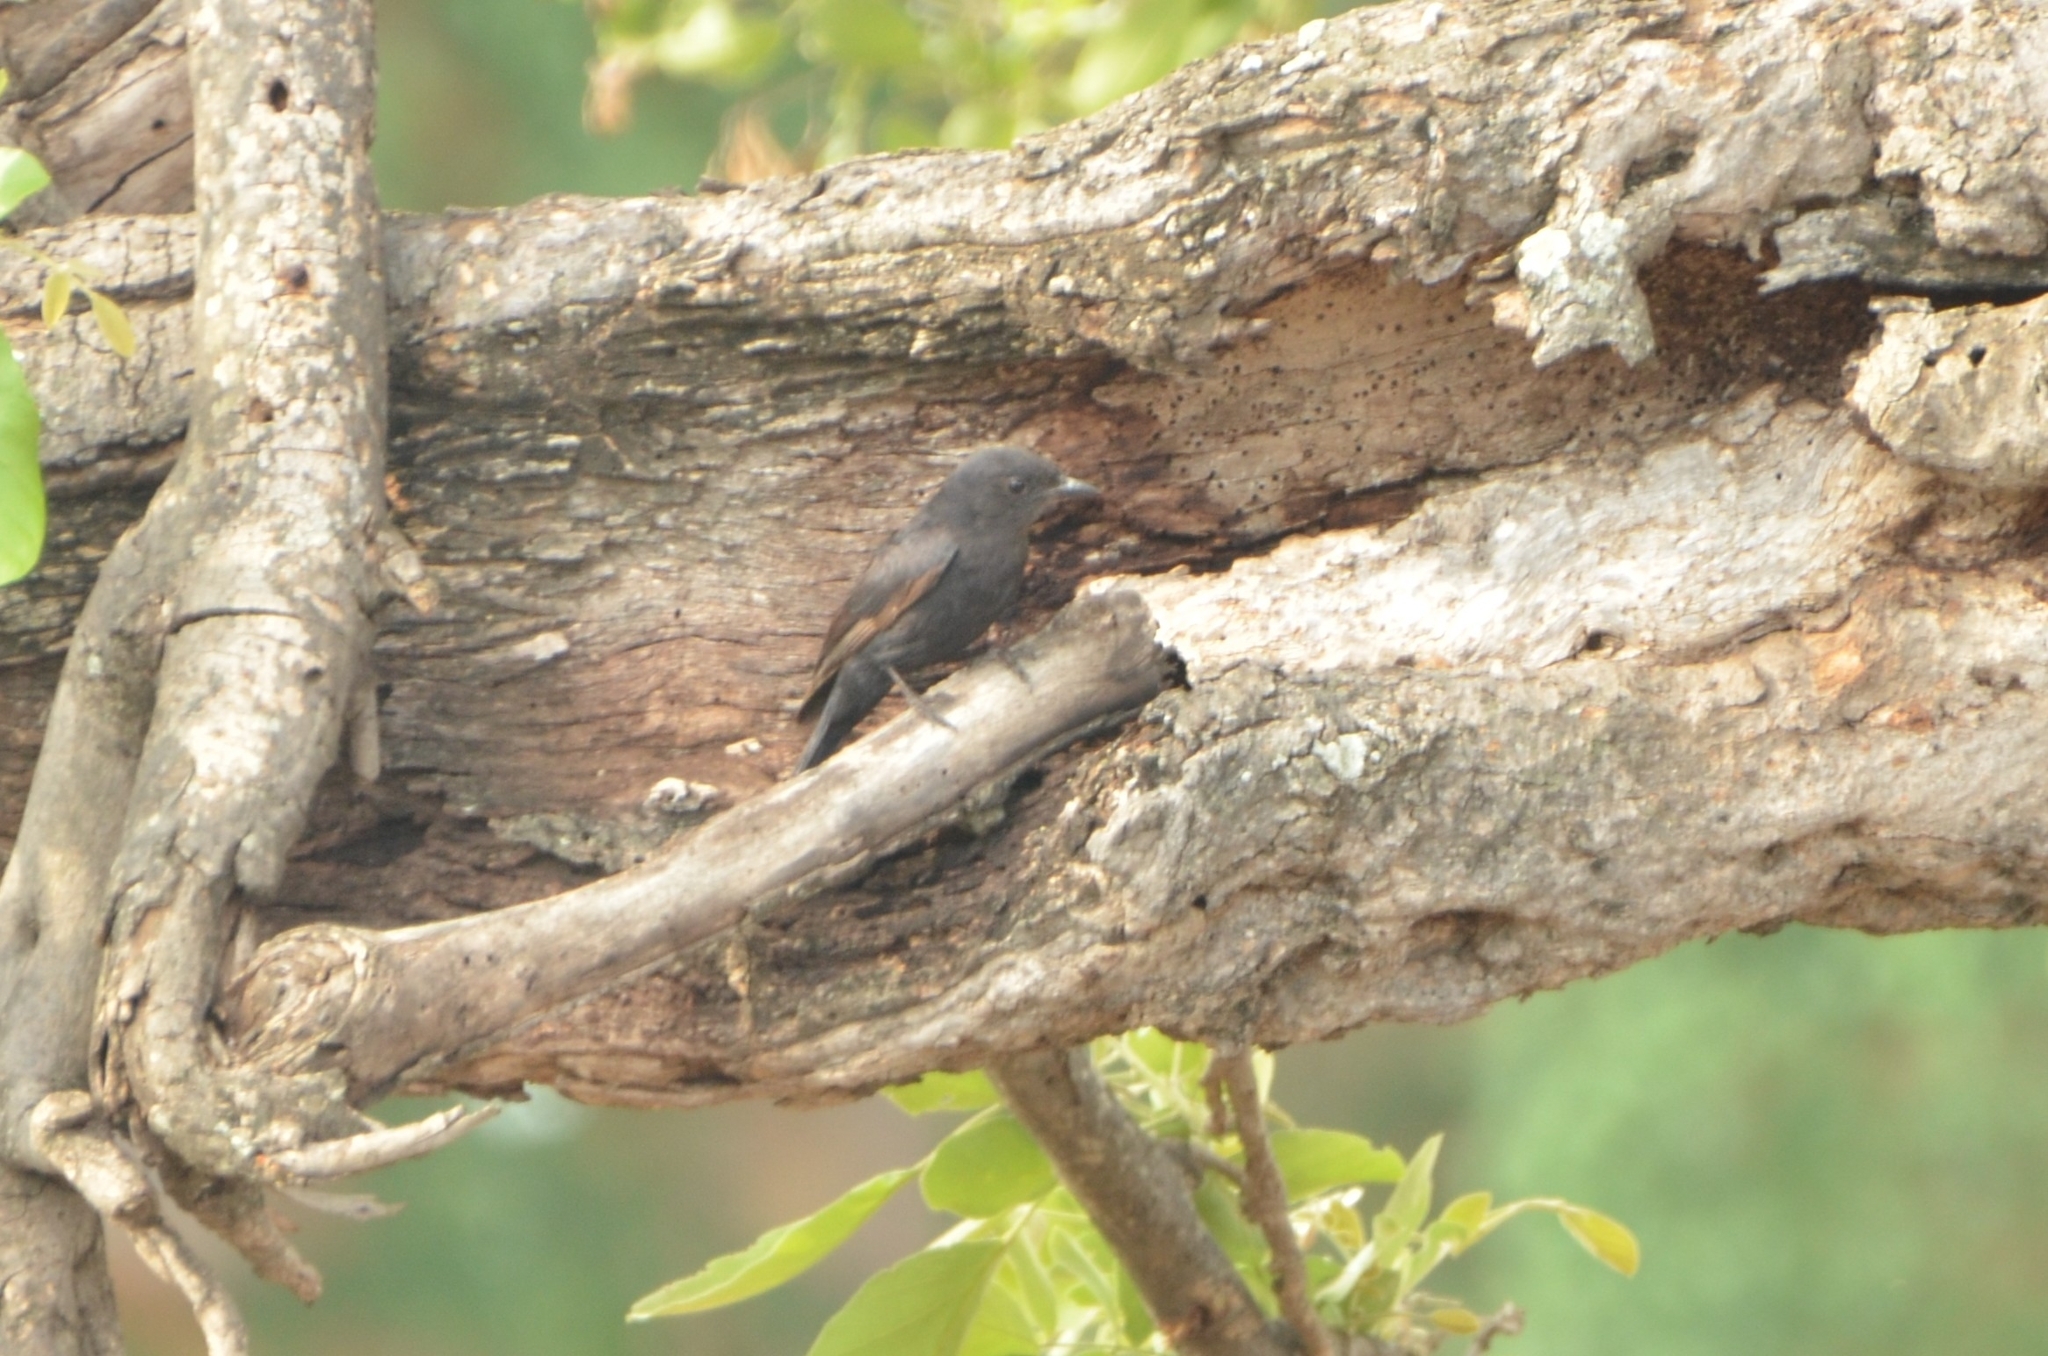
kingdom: Animalia
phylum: Chordata
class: Aves
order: Passeriformes
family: Dicruridae
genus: Dicrurus
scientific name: Dicrurus adsimilis
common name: Fork-tailed drongo
